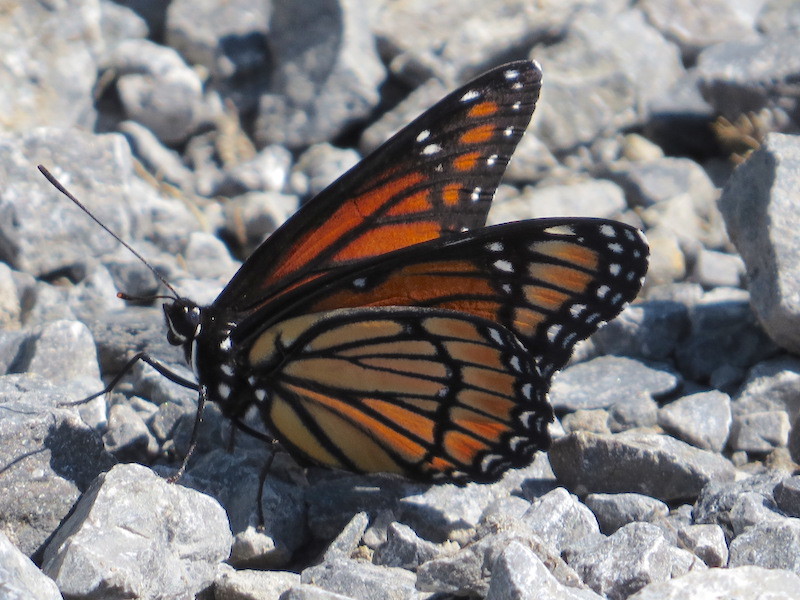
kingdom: Animalia
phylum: Arthropoda
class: Insecta
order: Lepidoptera
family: Nymphalidae
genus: Limenitis
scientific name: Limenitis archippus
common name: Viceroy
